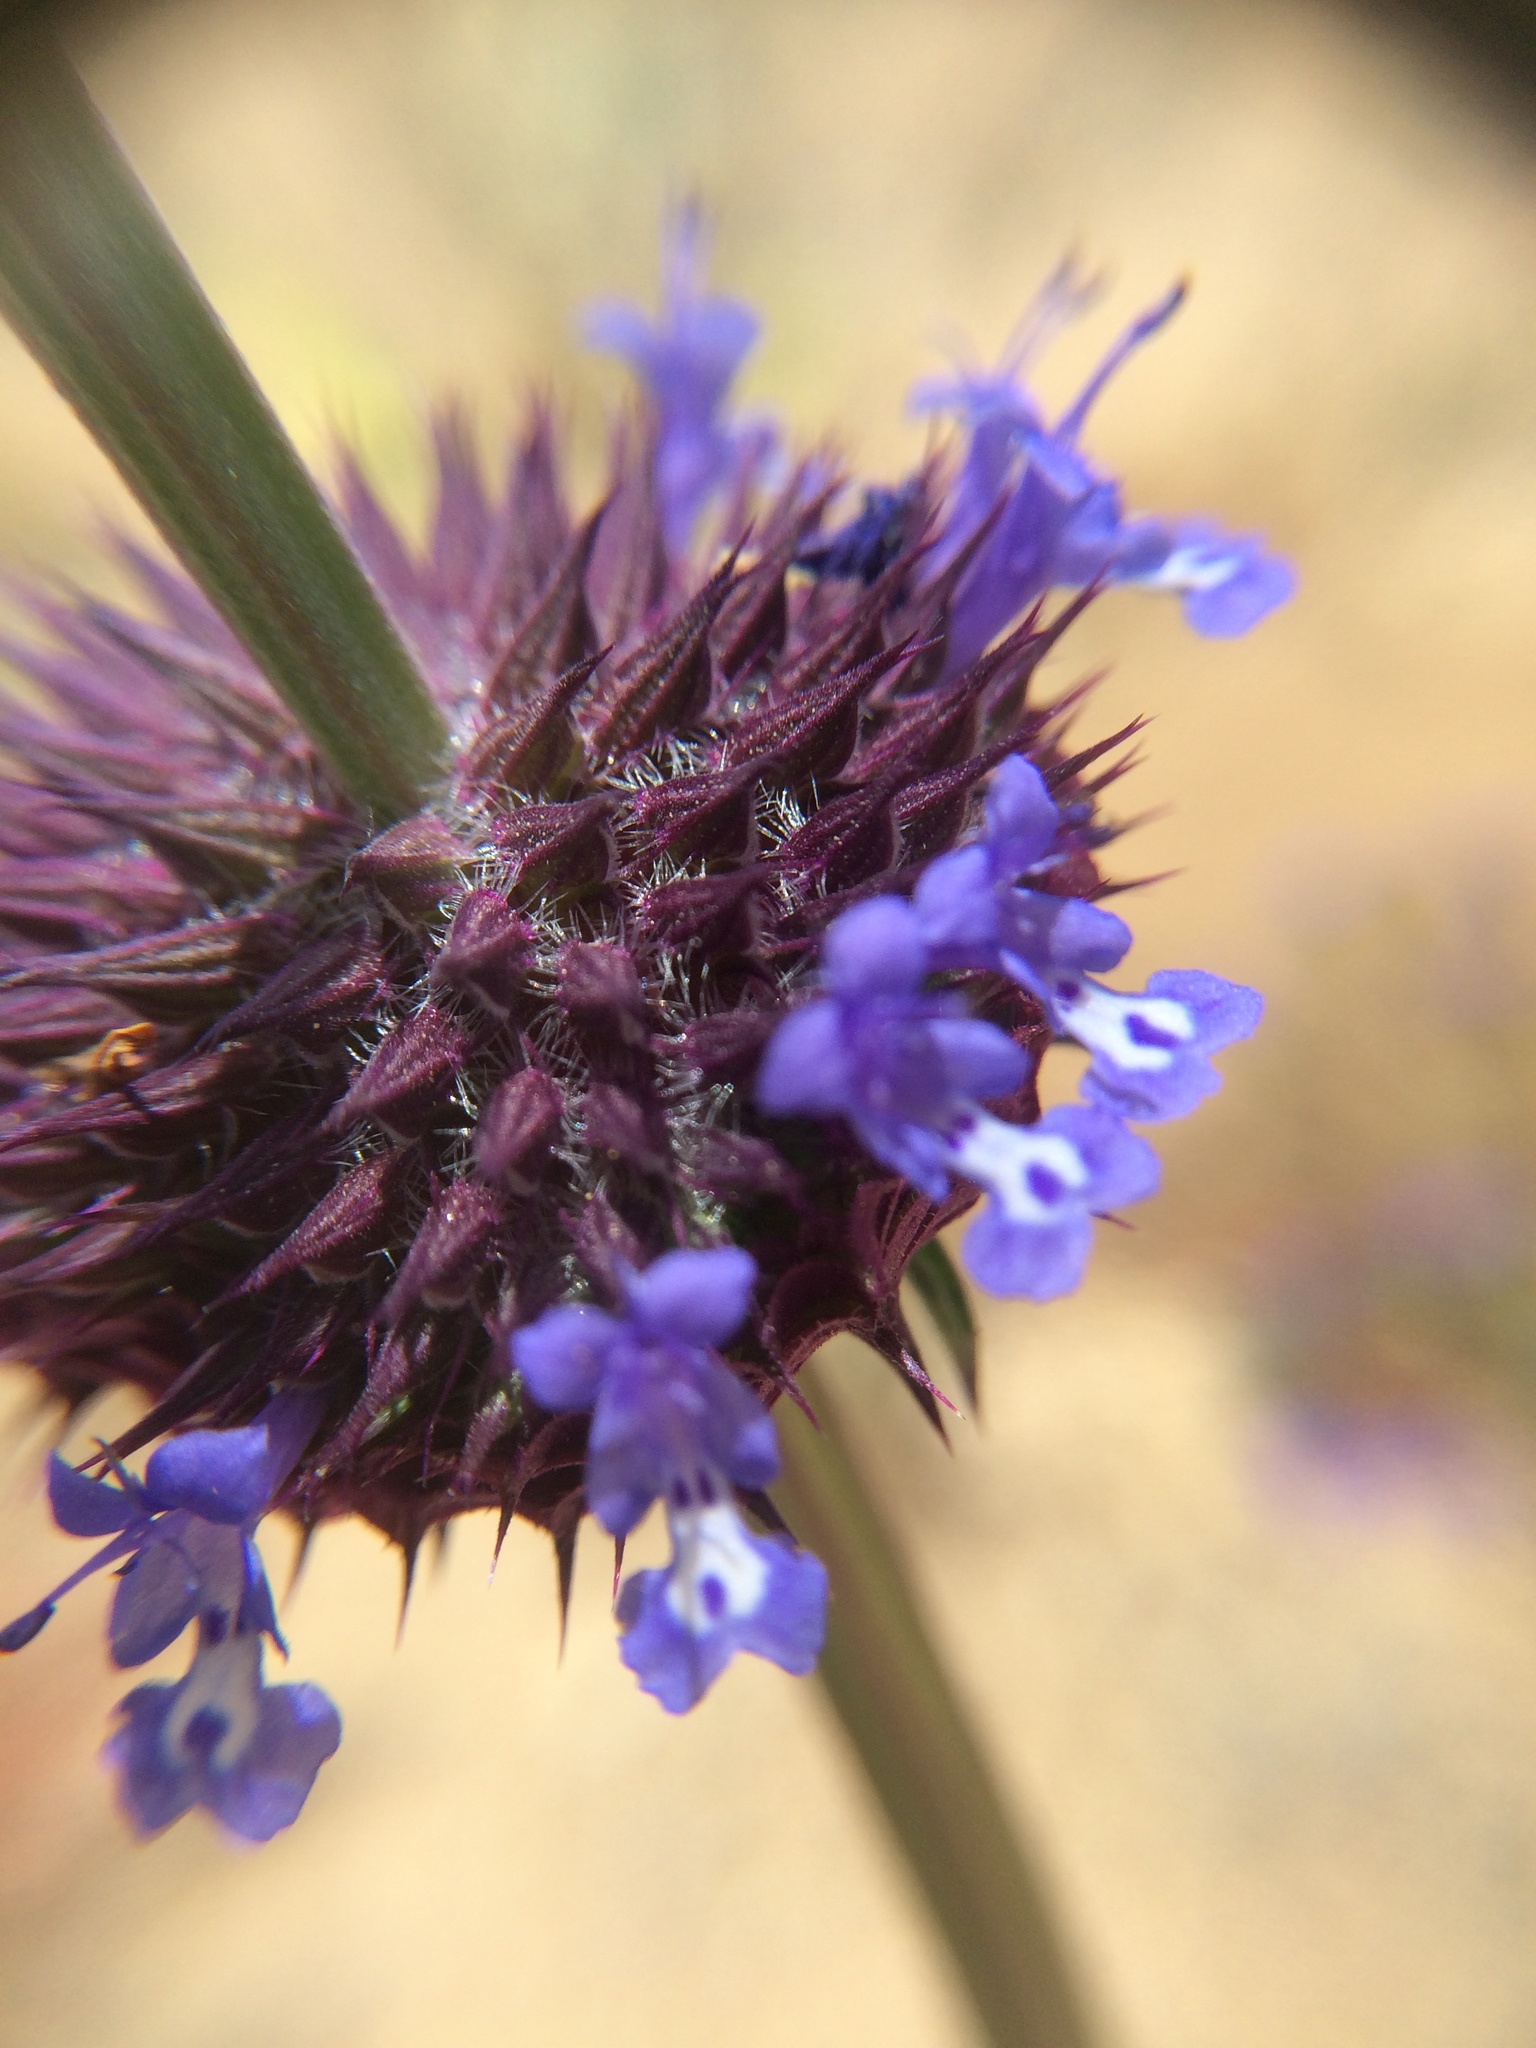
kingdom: Plantae
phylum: Tracheophyta
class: Magnoliopsida
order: Lamiales
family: Lamiaceae
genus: Salvia
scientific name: Salvia columbariae
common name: Chia
